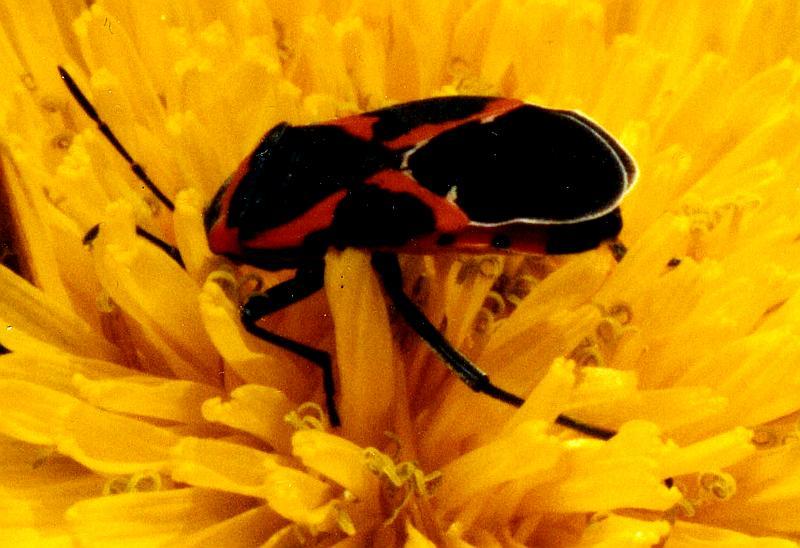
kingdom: Animalia
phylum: Arthropoda
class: Insecta
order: Hemiptera
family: Lygaeidae
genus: Lygaeus
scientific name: Lygaeus kalmii
